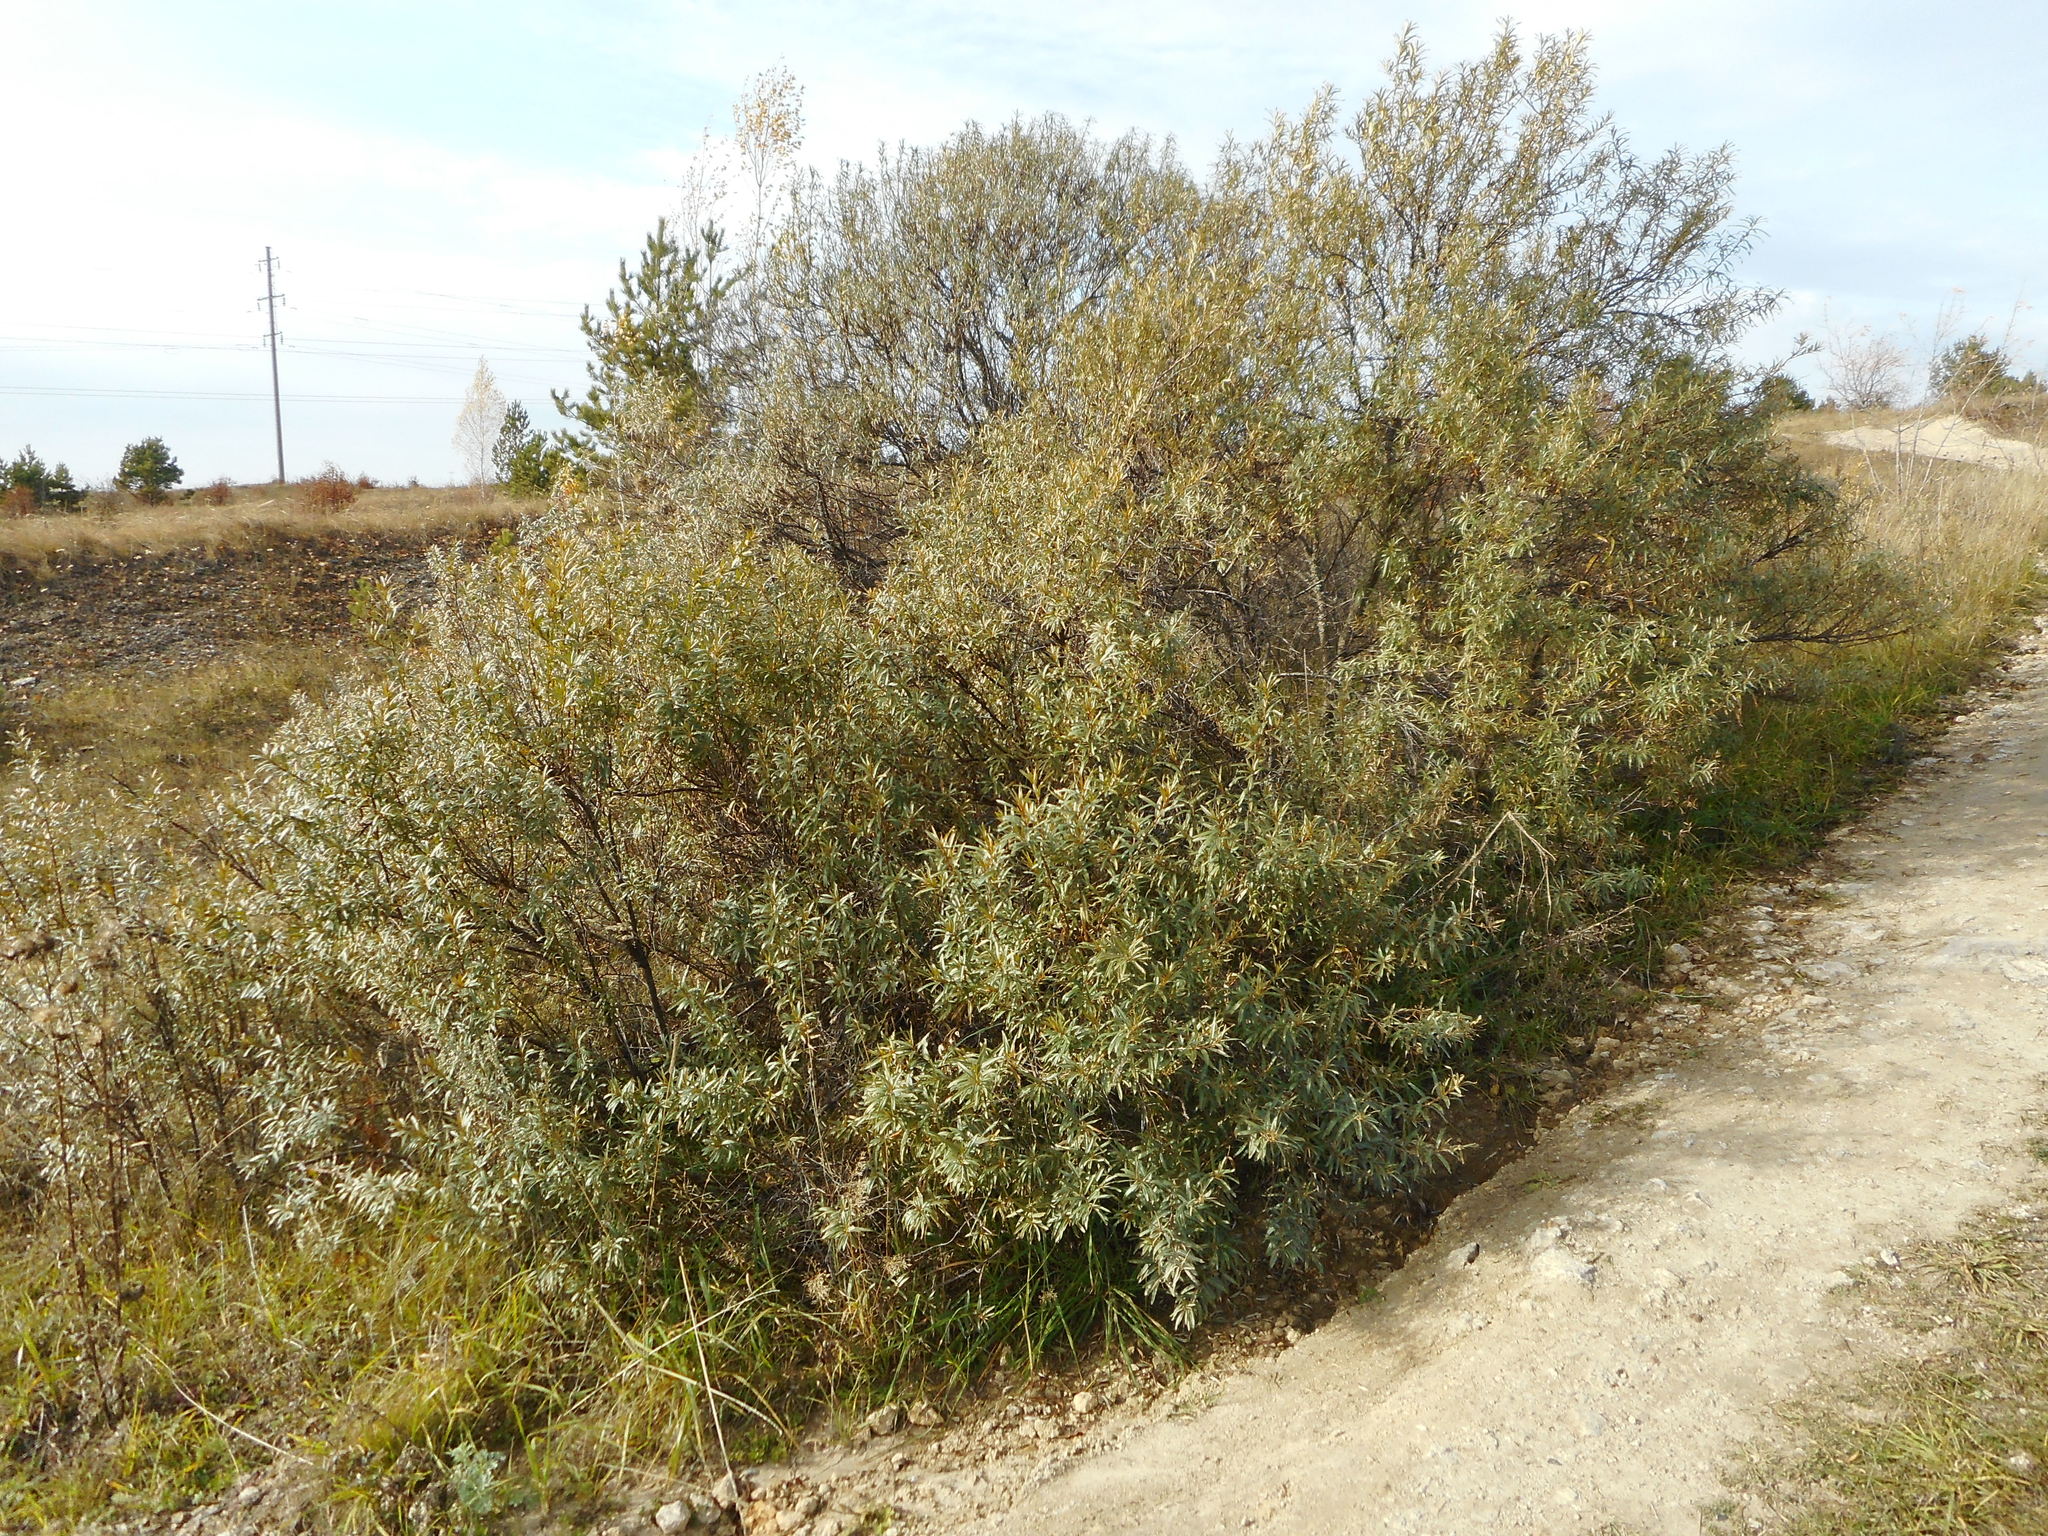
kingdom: Plantae
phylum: Tracheophyta
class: Magnoliopsida
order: Rosales
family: Elaeagnaceae
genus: Hippophae
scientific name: Hippophae rhamnoides
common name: Sea-buckthorn
